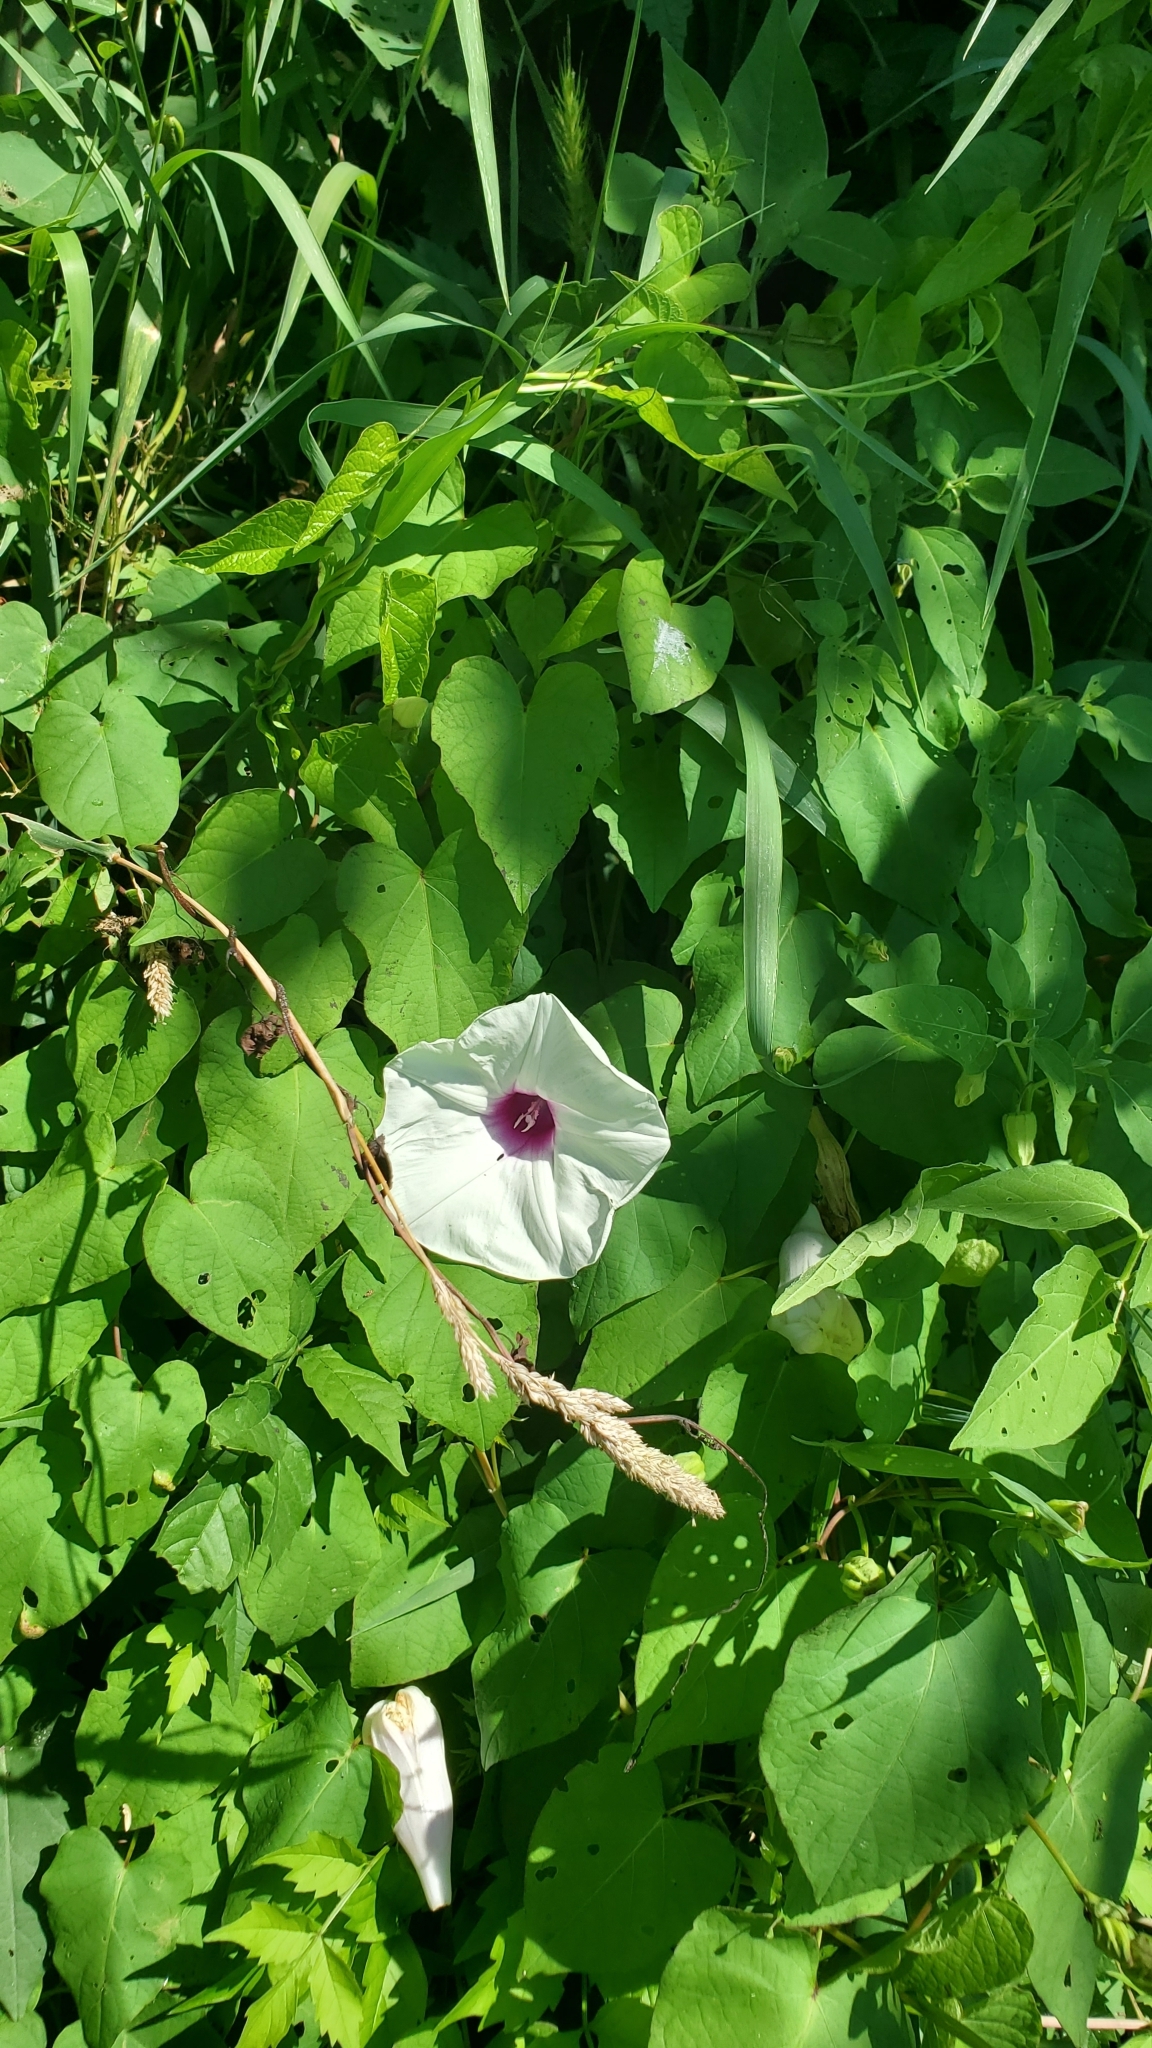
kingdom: Plantae
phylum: Tracheophyta
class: Magnoliopsida
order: Solanales
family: Convolvulaceae
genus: Ipomoea
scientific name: Ipomoea pandurata
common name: Man-of-the-earth
